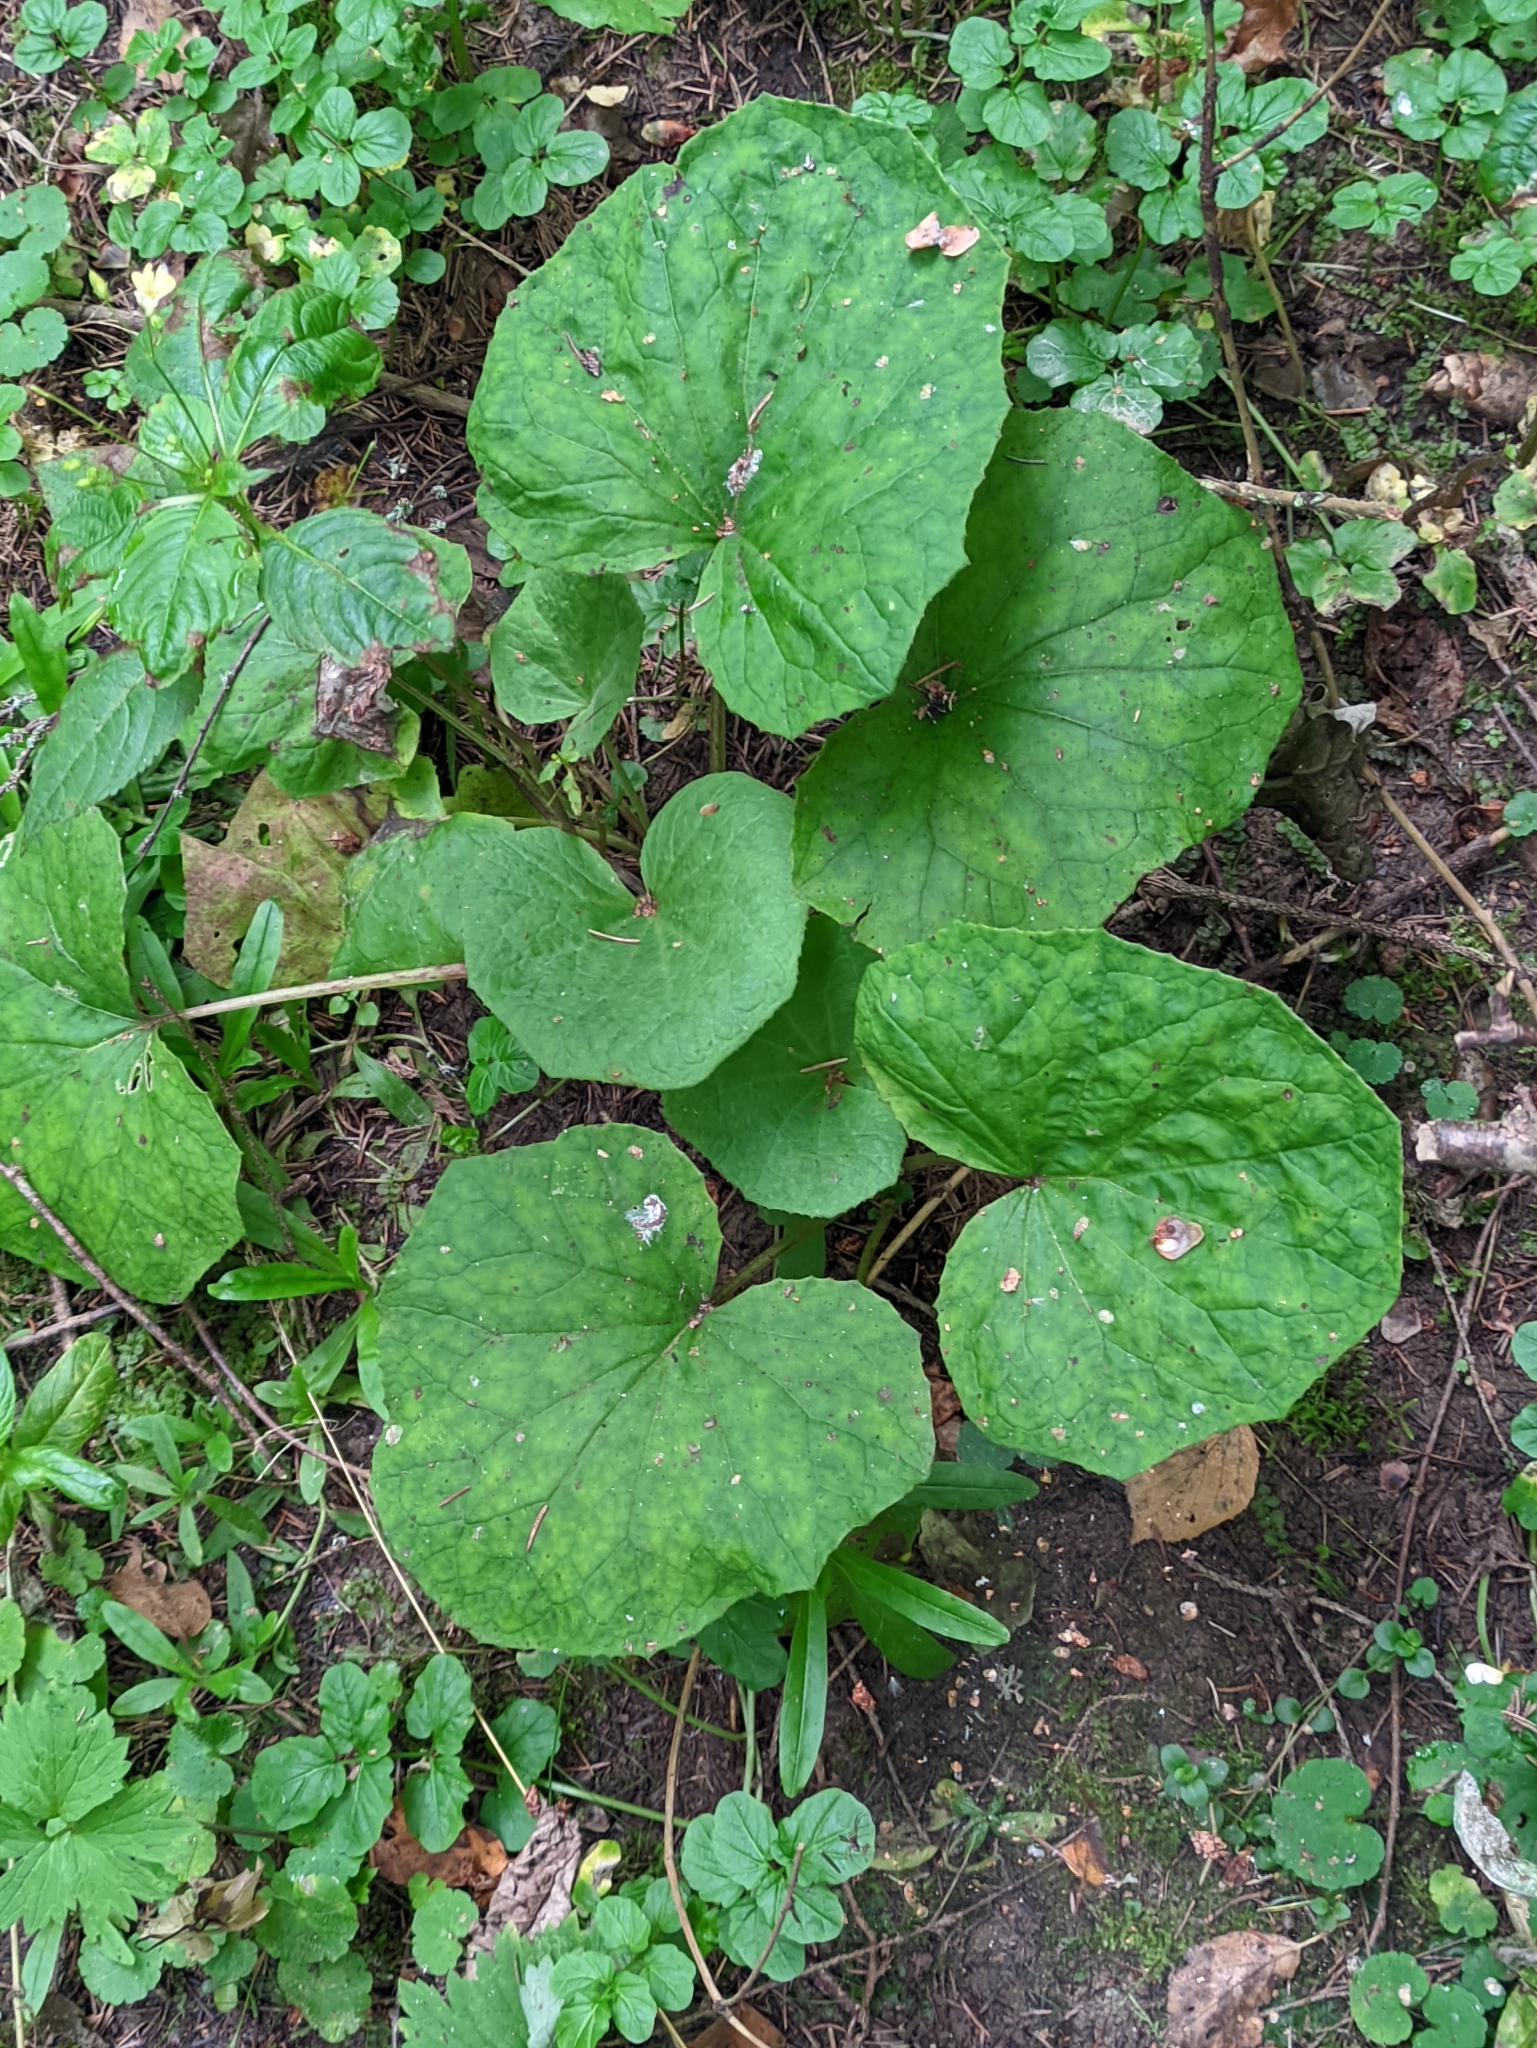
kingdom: Plantae
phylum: Tracheophyta
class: Magnoliopsida
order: Asterales
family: Asteraceae
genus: Tussilago
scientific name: Tussilago farfara
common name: Coltsfoot
